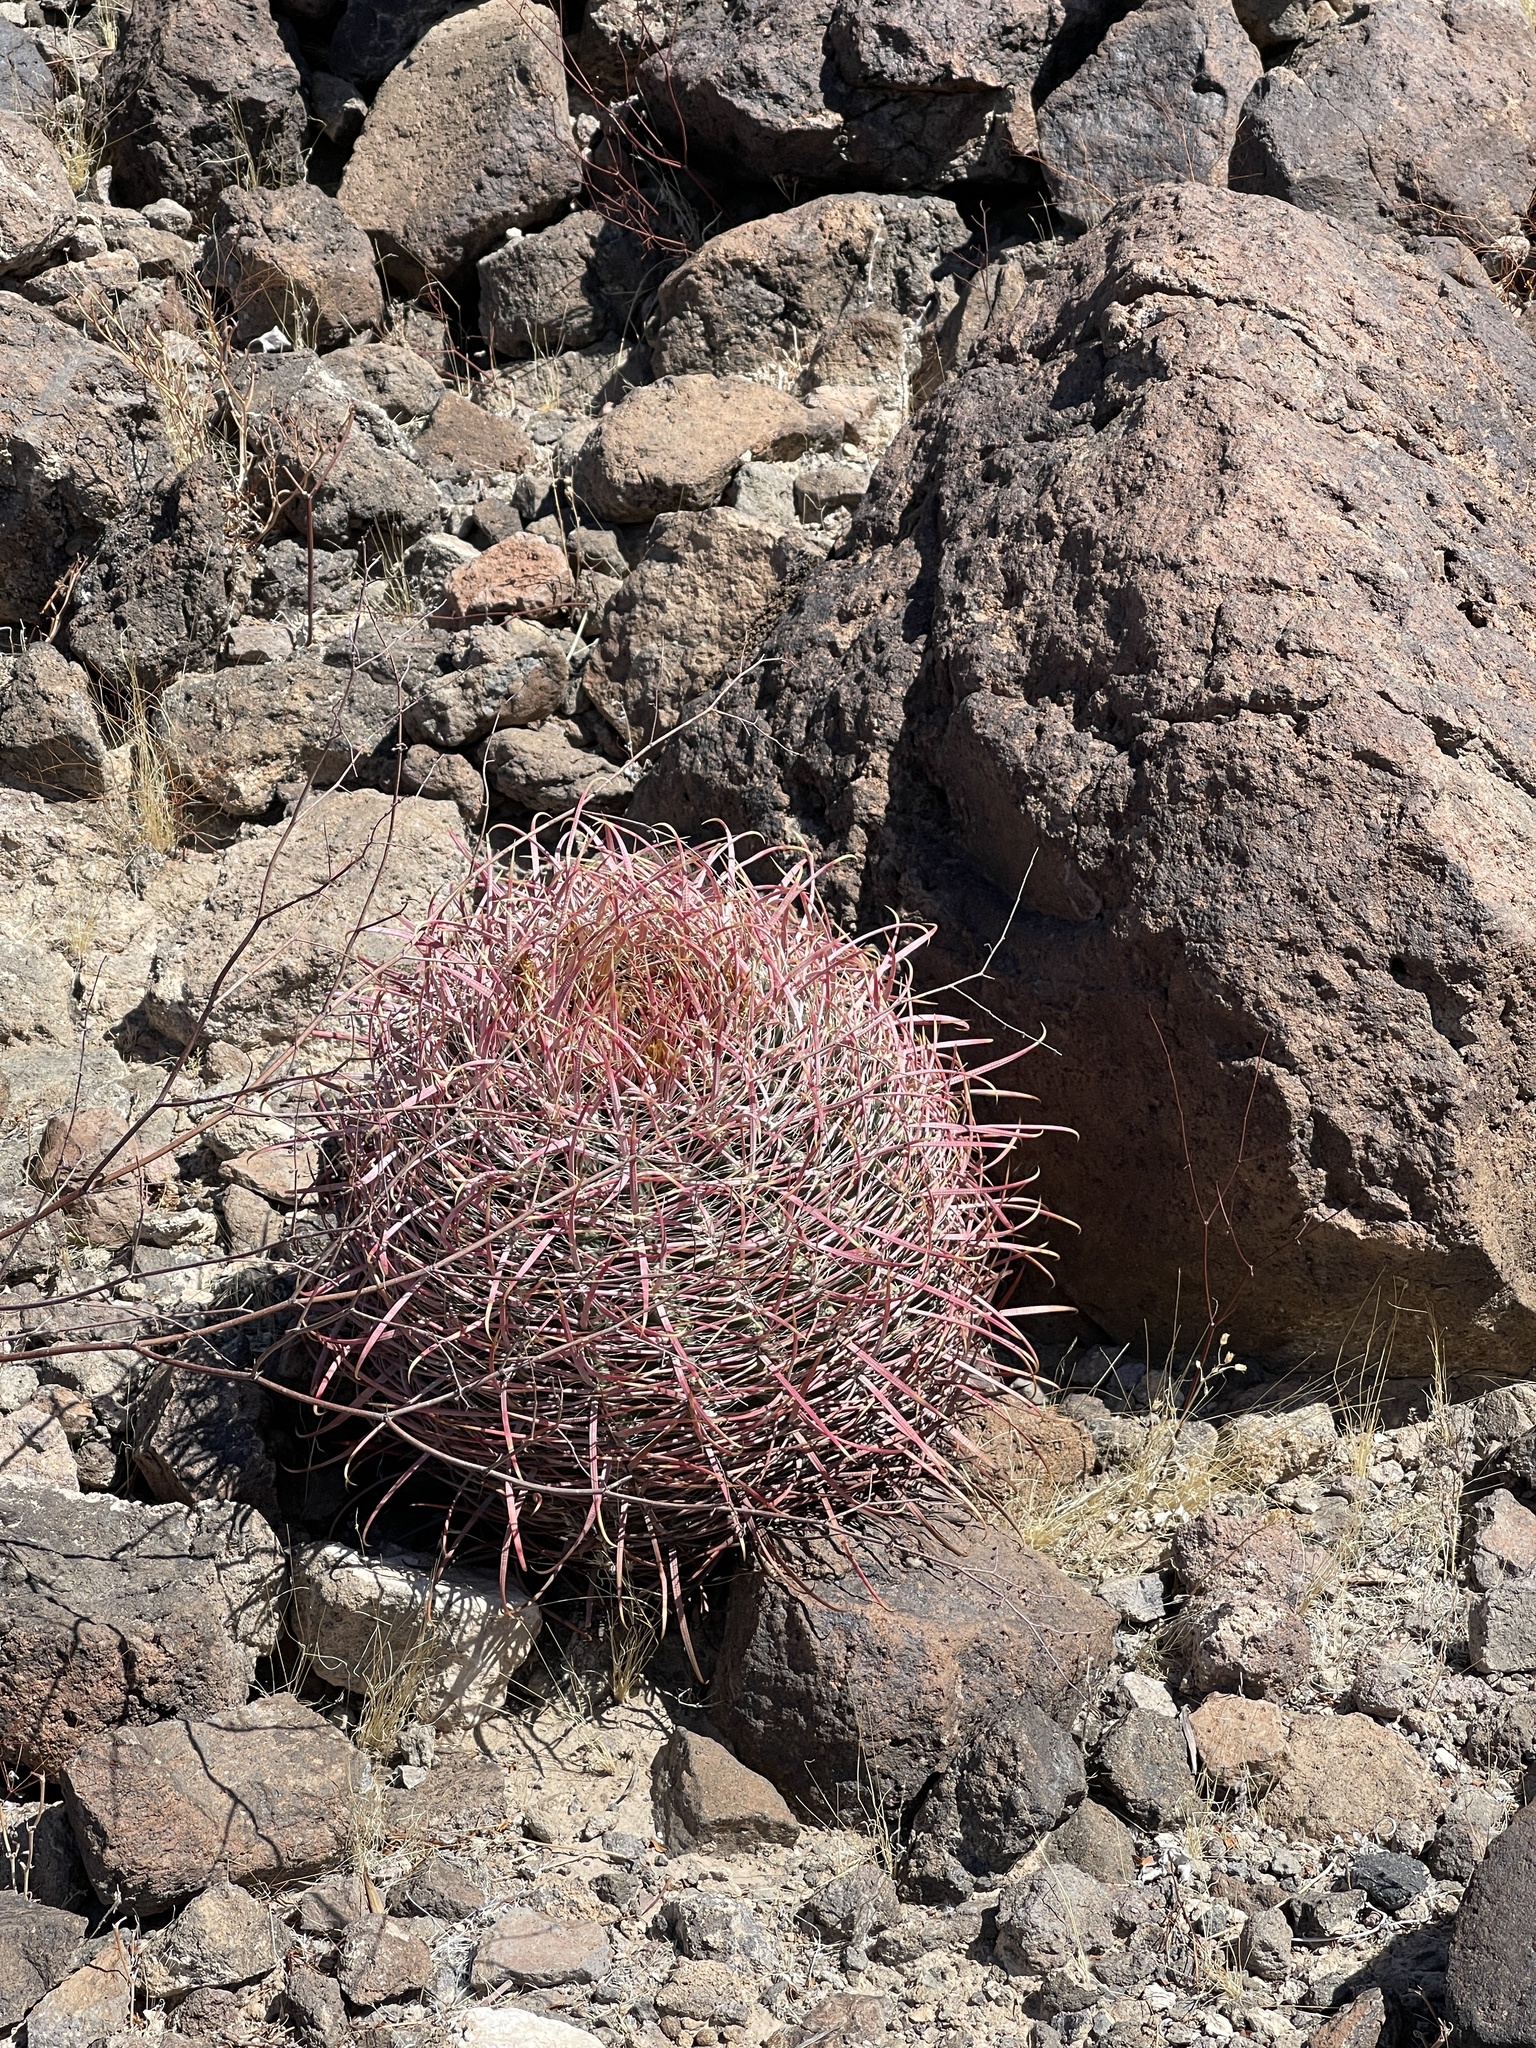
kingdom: Plantae
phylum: Tracheophyta
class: Magnoliopsida
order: Caryophyllales
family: Cactaceae
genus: Ferocactus
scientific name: Ferocactus cylindraceus
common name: California barrel cactus
